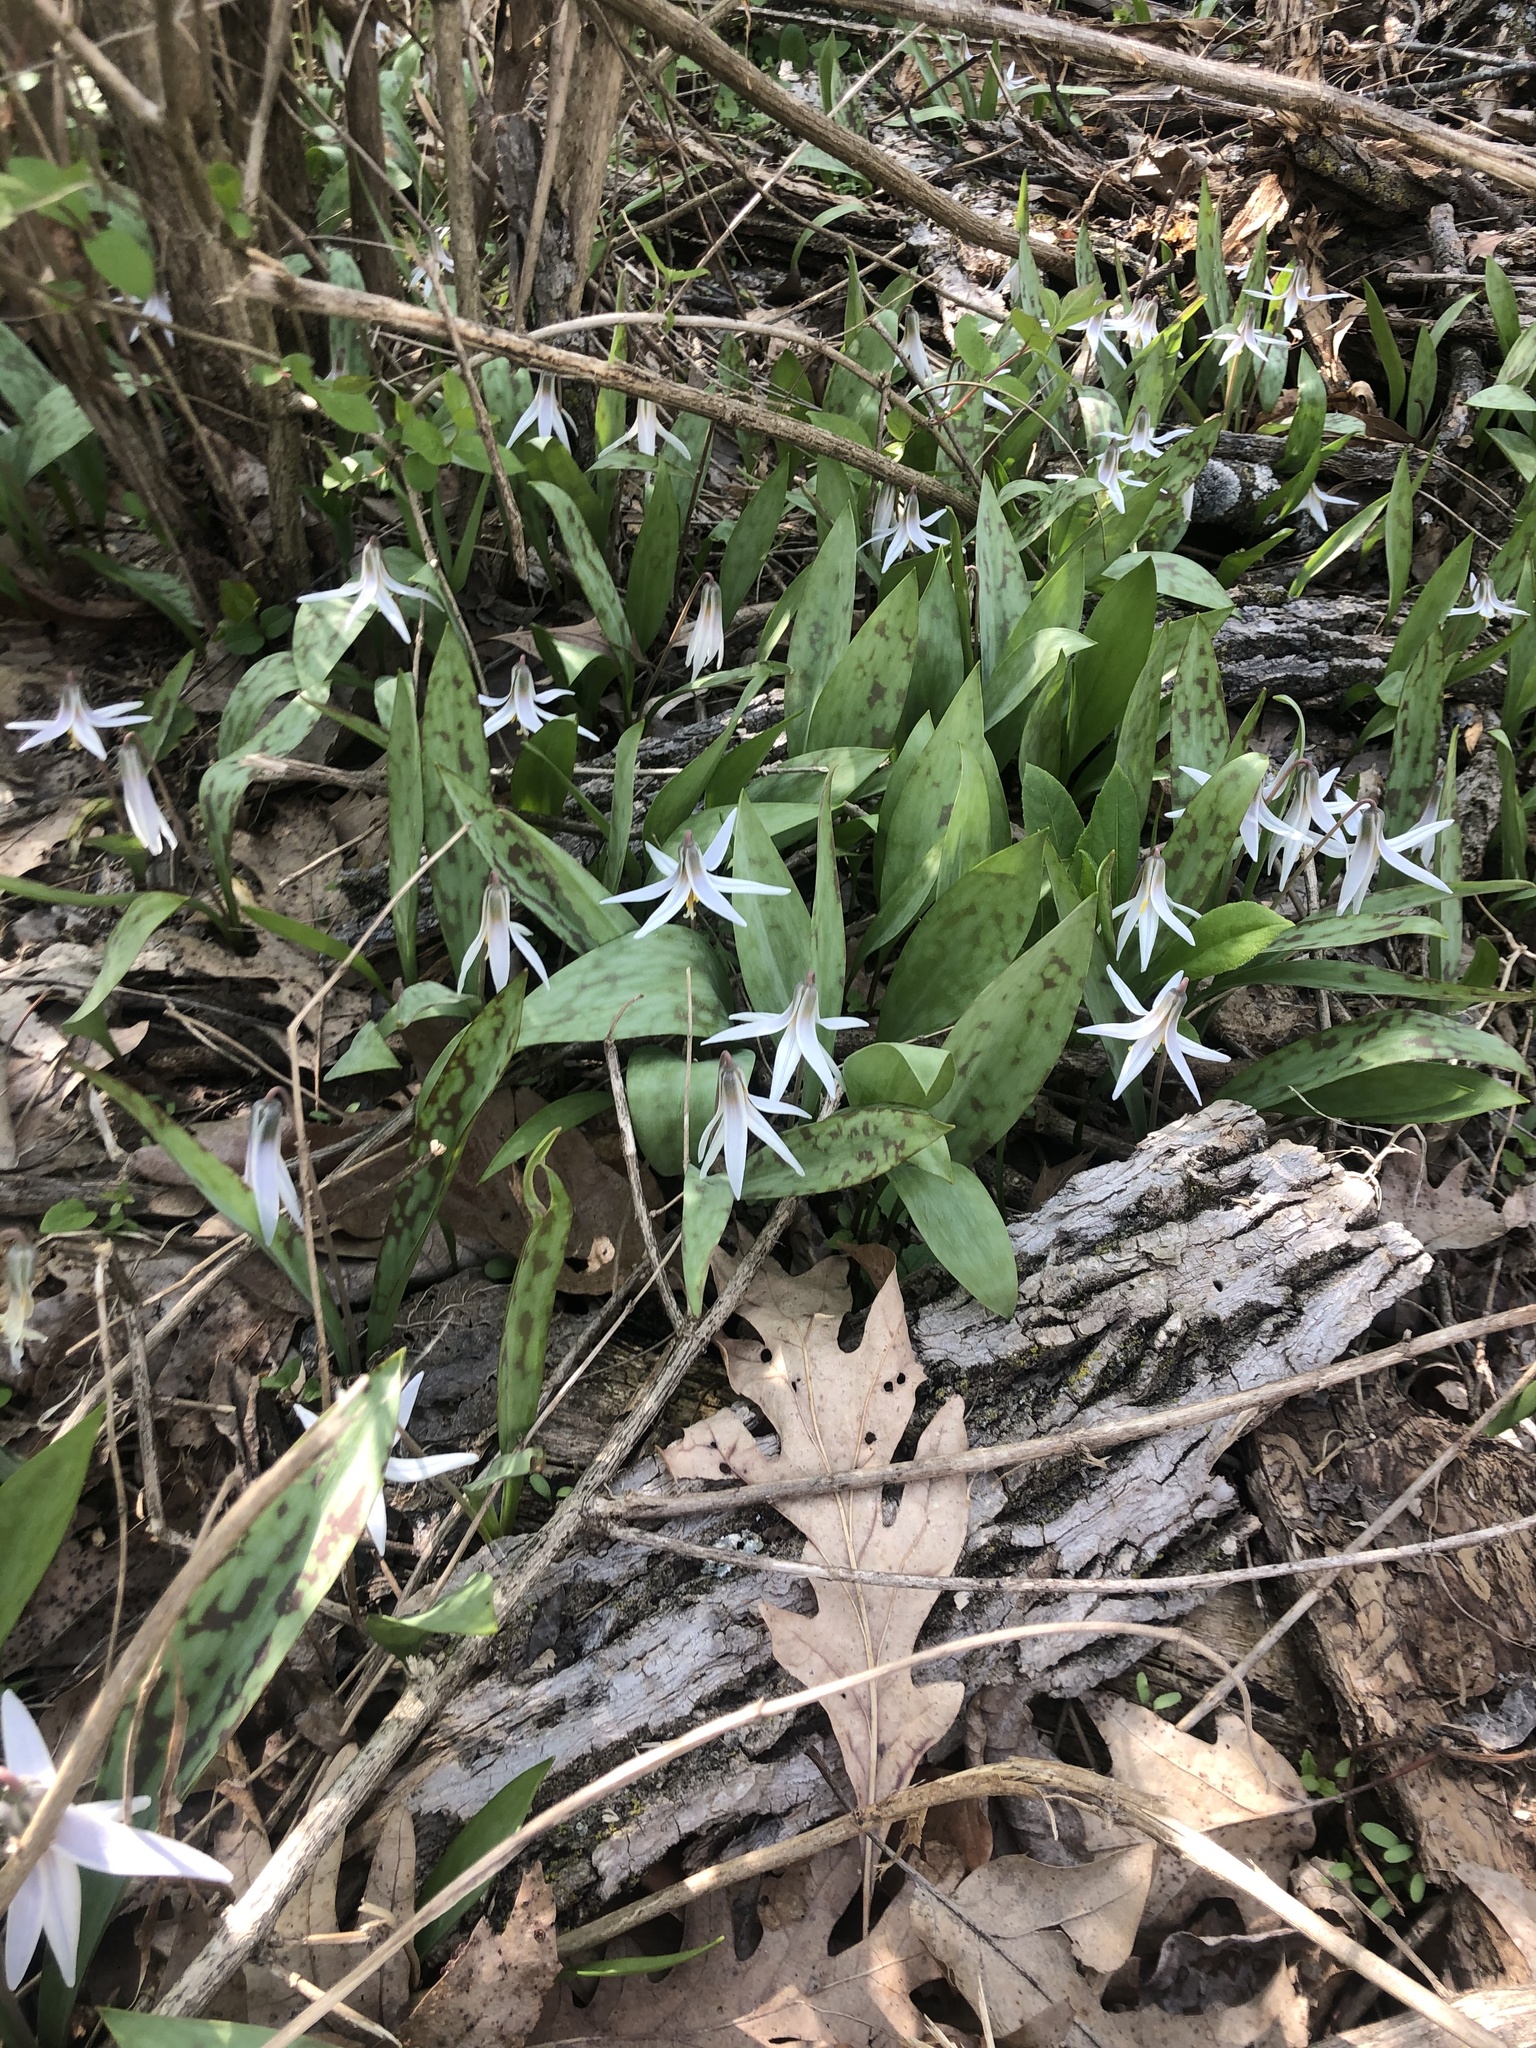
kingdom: Plantae
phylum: Tracheophyta
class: Liliopsida
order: Liliales
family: Liliaceae
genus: Erythronium
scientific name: Erythronium albidum
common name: White trout-lily
